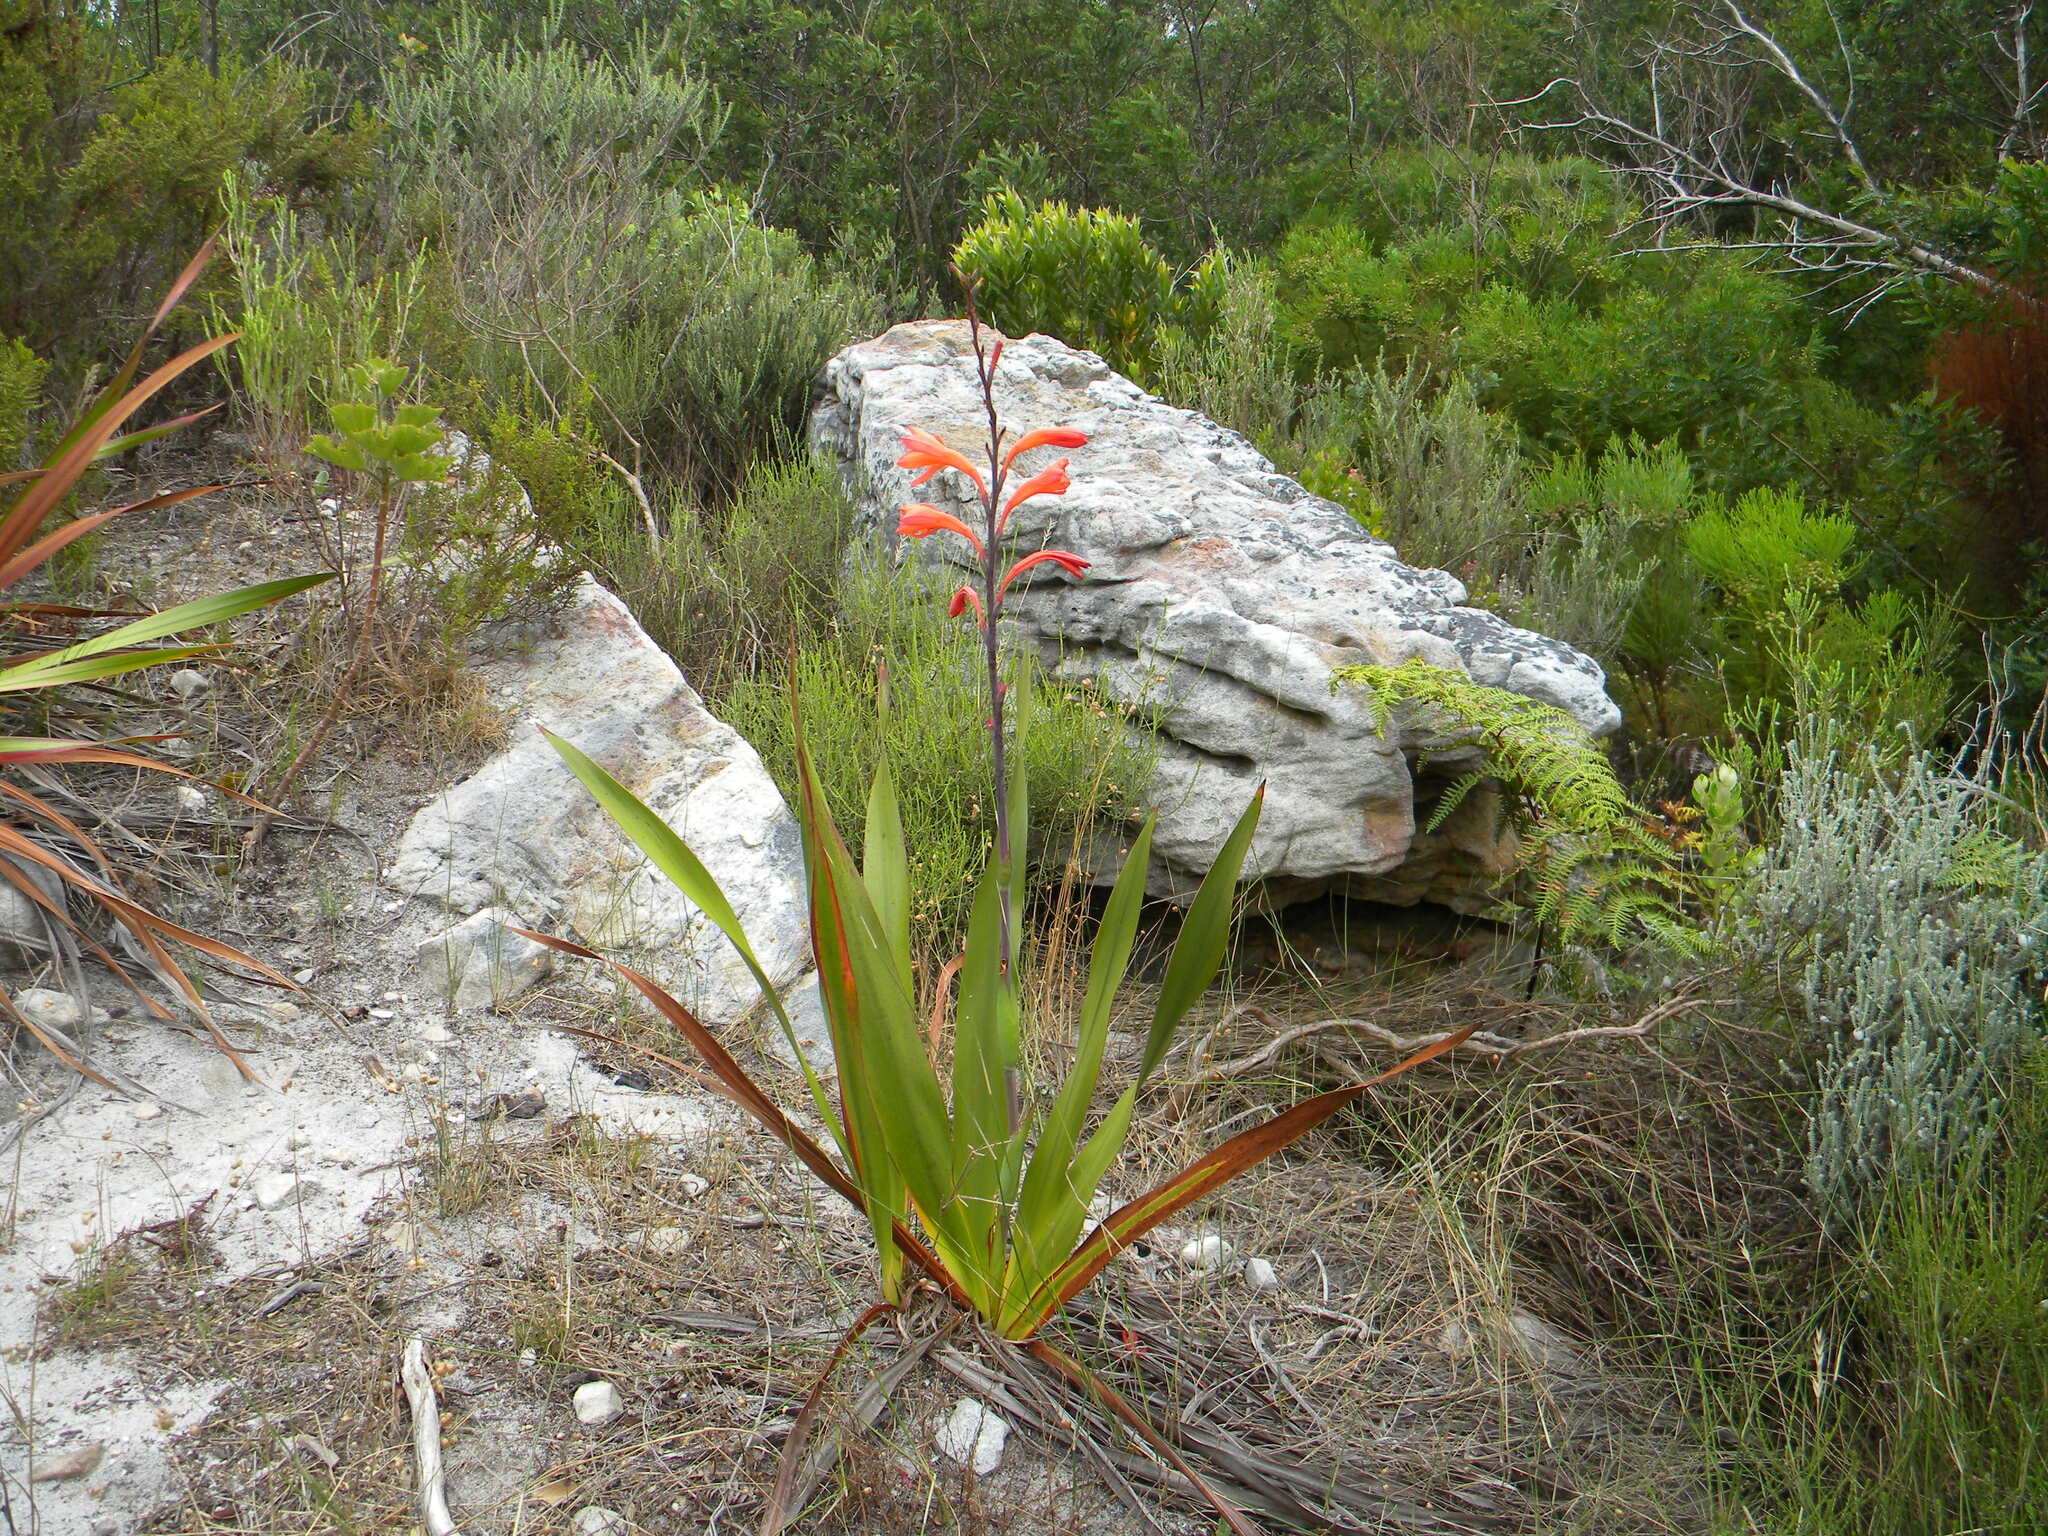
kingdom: Plantae
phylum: Tracheophyta
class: Liliopsida
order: Asparagales
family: Iridaceae
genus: Watsonia
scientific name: Watsonia tabularis
